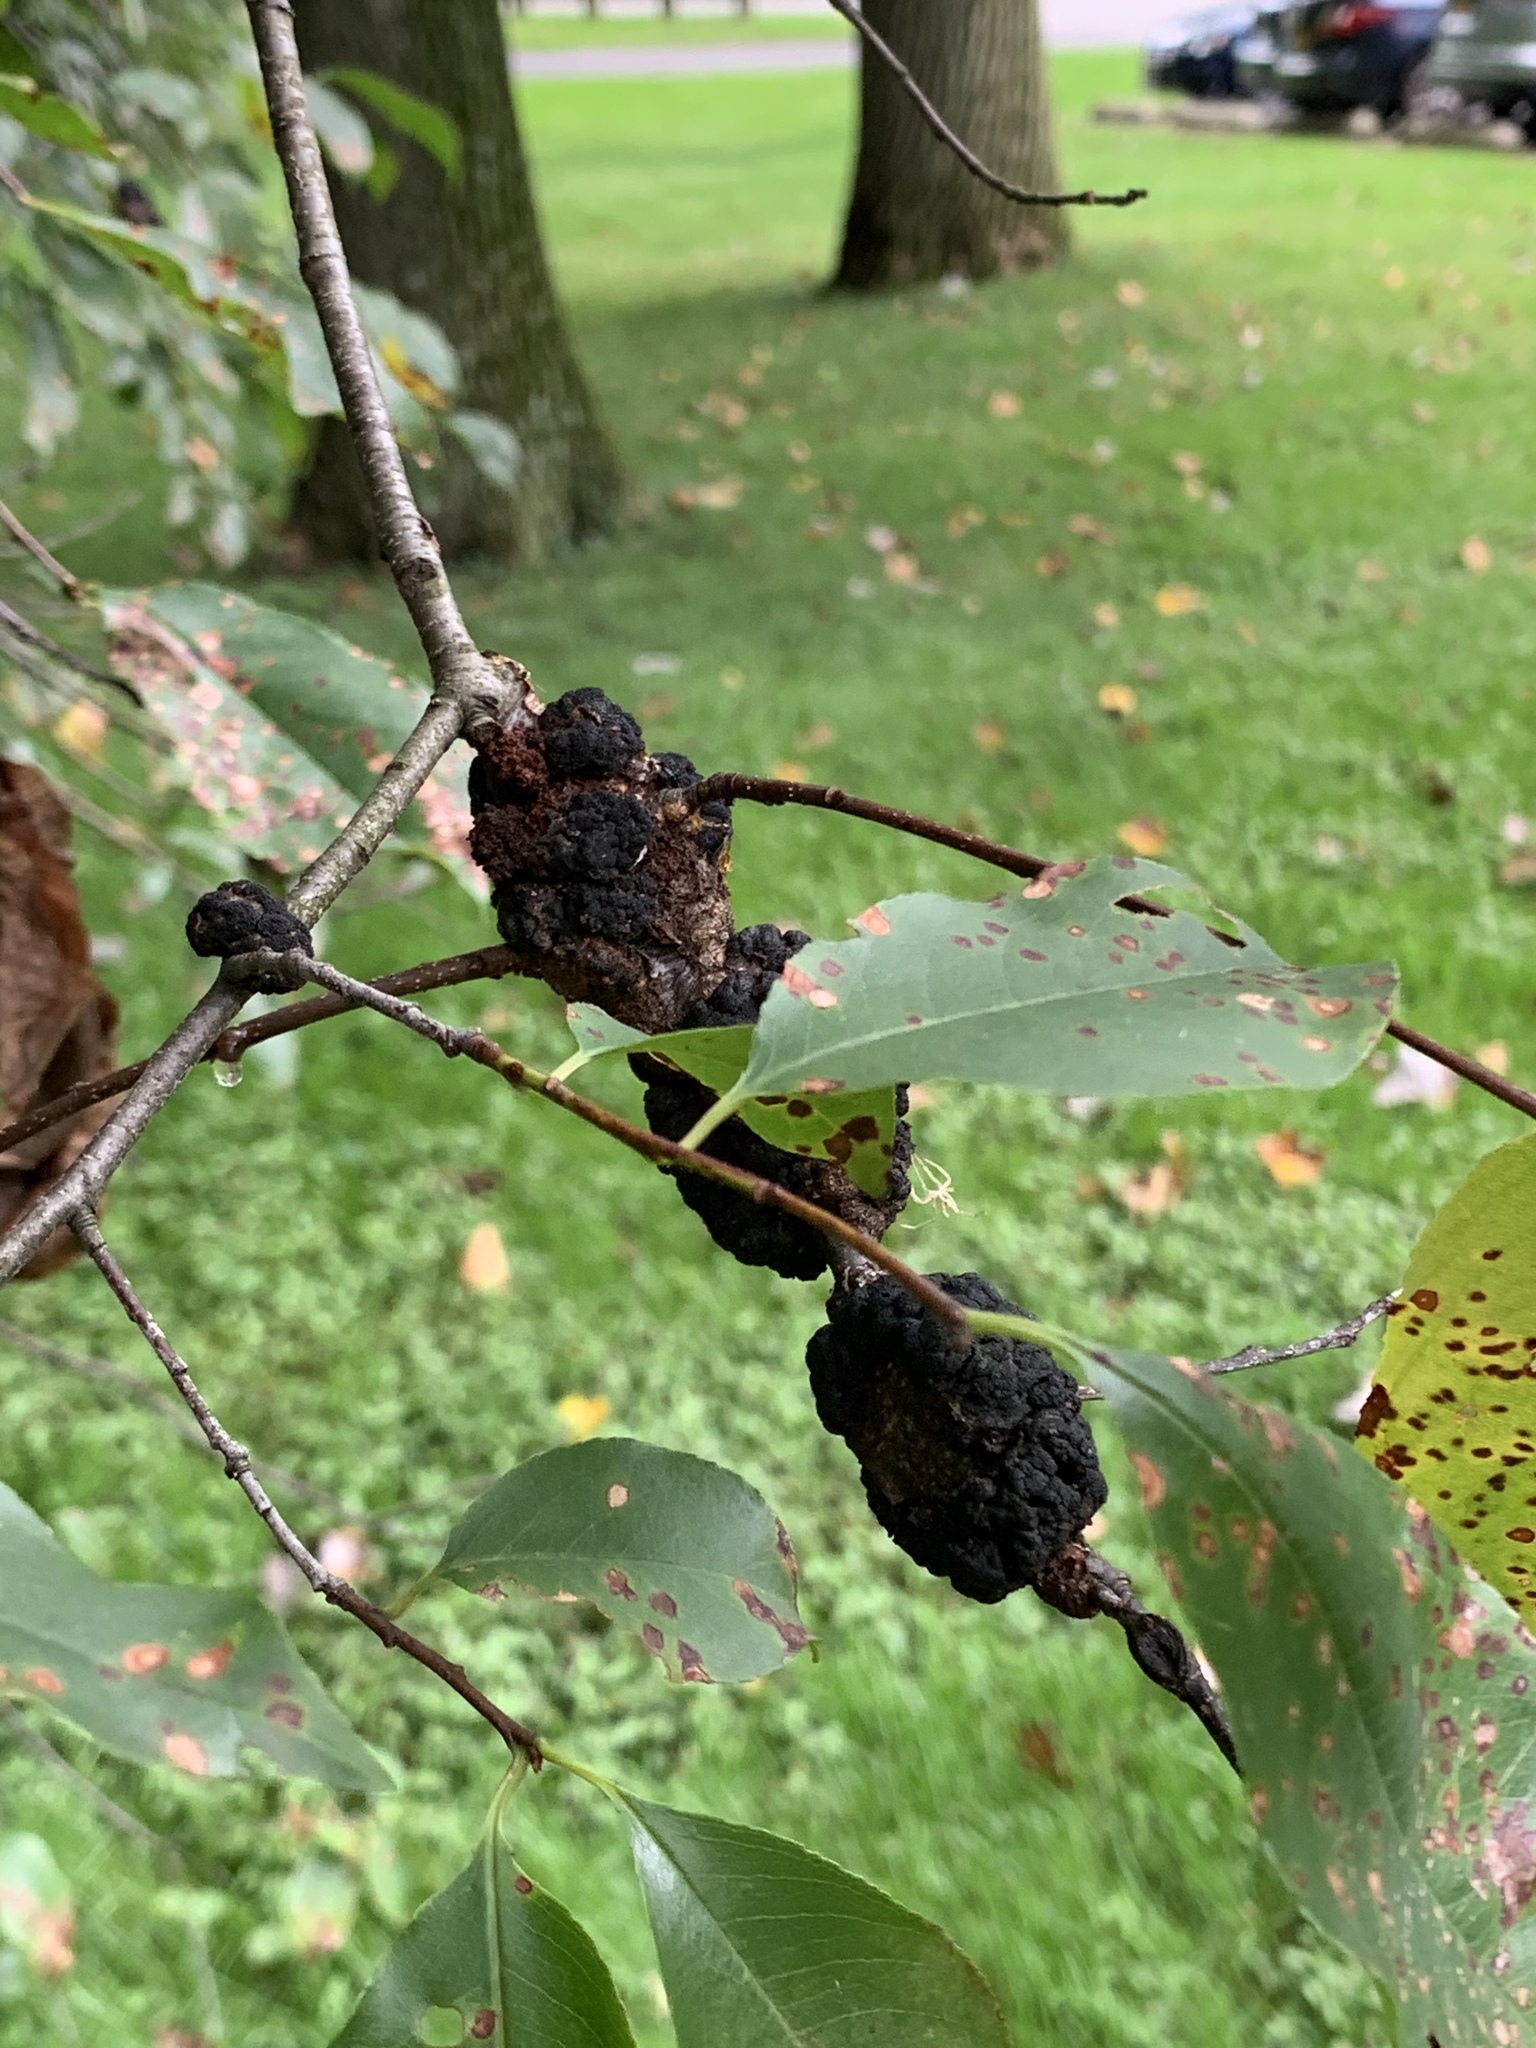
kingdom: Fungi
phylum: Ascomycota
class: Dothideomycetes
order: Venturiales
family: Venturiaceae
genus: Apiosporina
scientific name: Apiosporina morbosa
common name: Black knot
